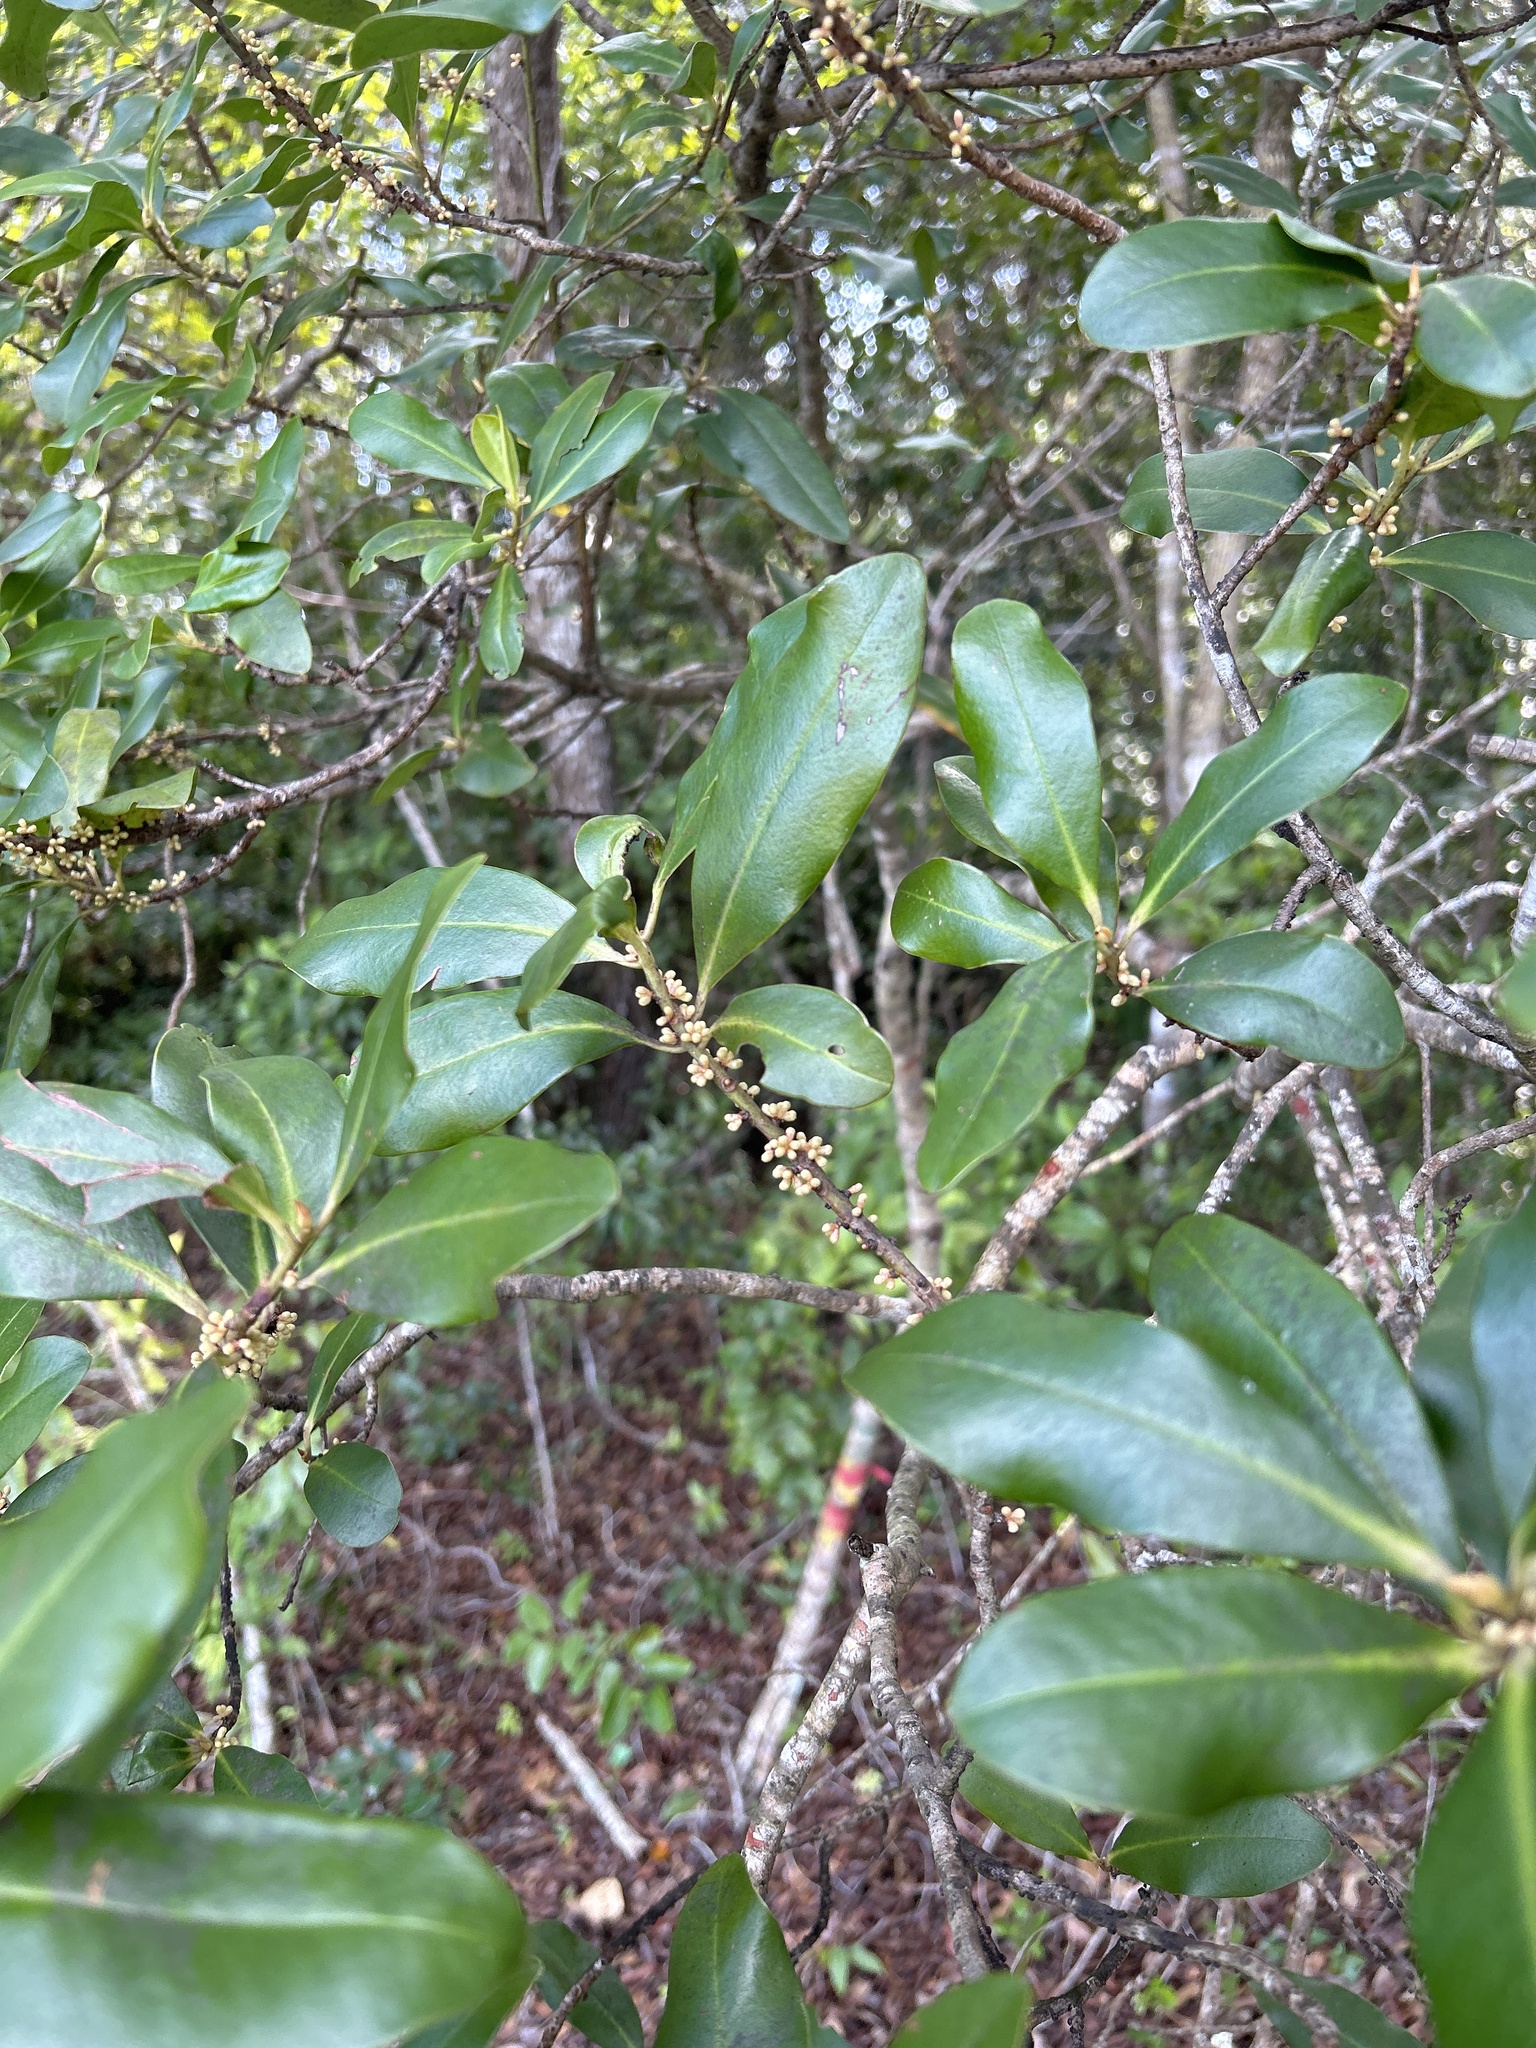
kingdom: Plantae
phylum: Tracheophyta
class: Magnoliopsida
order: Ericales
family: Primulaceae
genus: Myrsine
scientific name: Myrsine floridana
